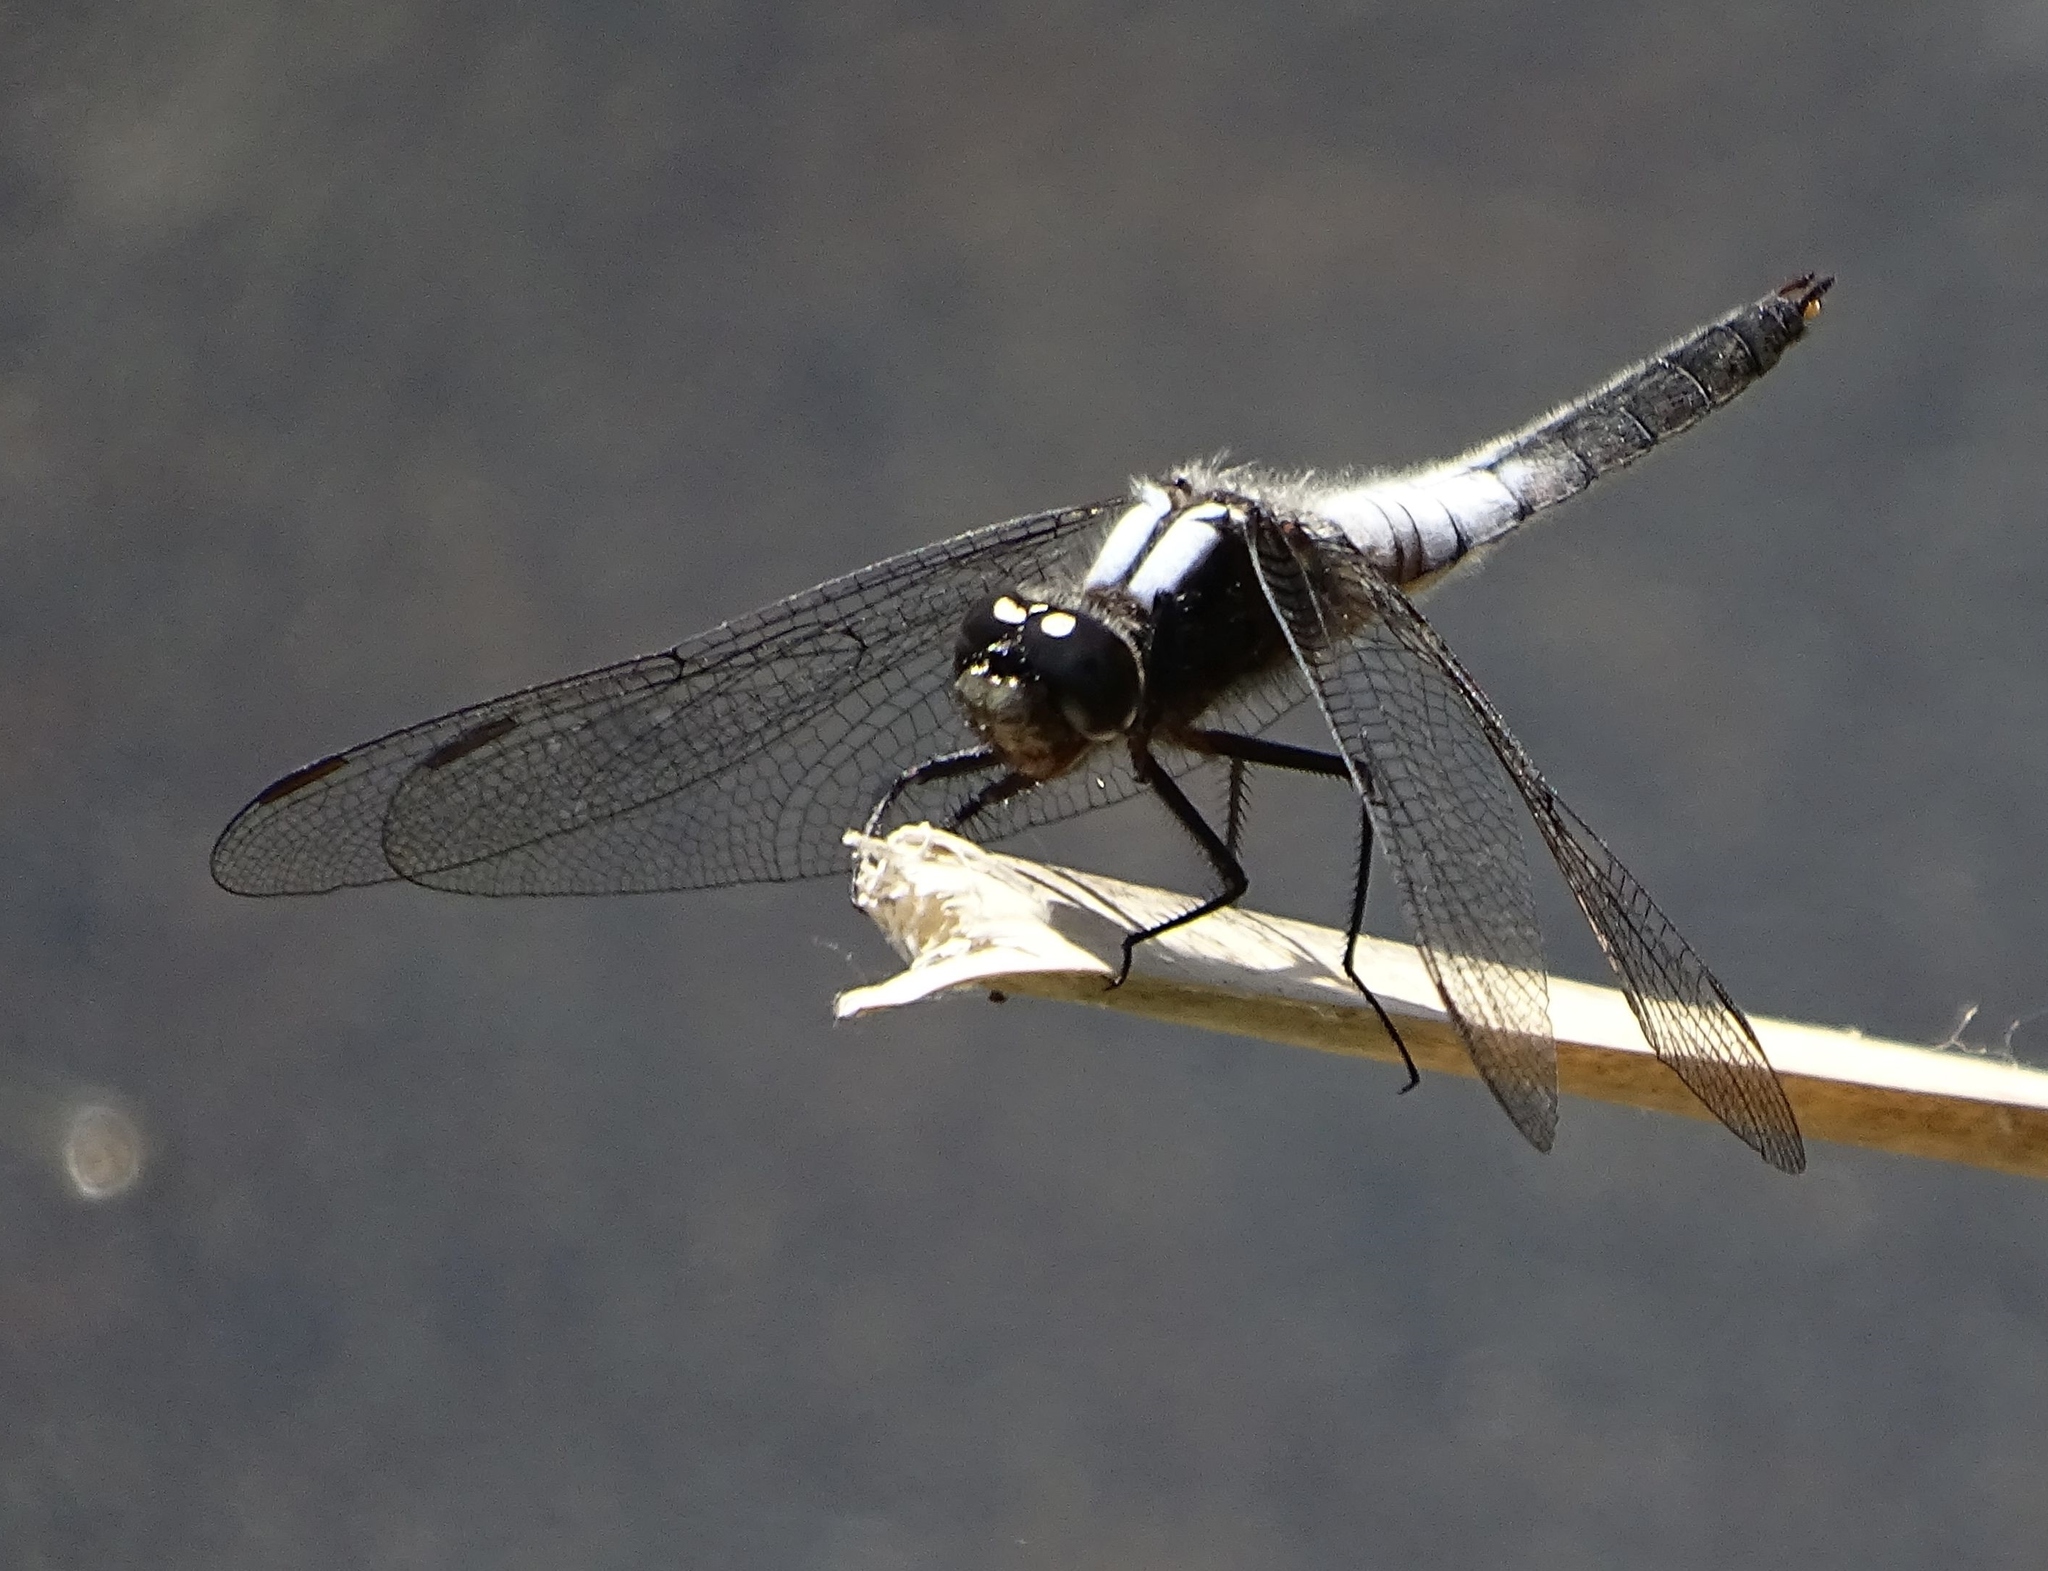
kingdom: Animalia
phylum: Arthropoda
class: Insecta
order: Odonata
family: Libellulidae
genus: Ladona
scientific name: Ladona julia
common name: Chalk-fronted corporal
